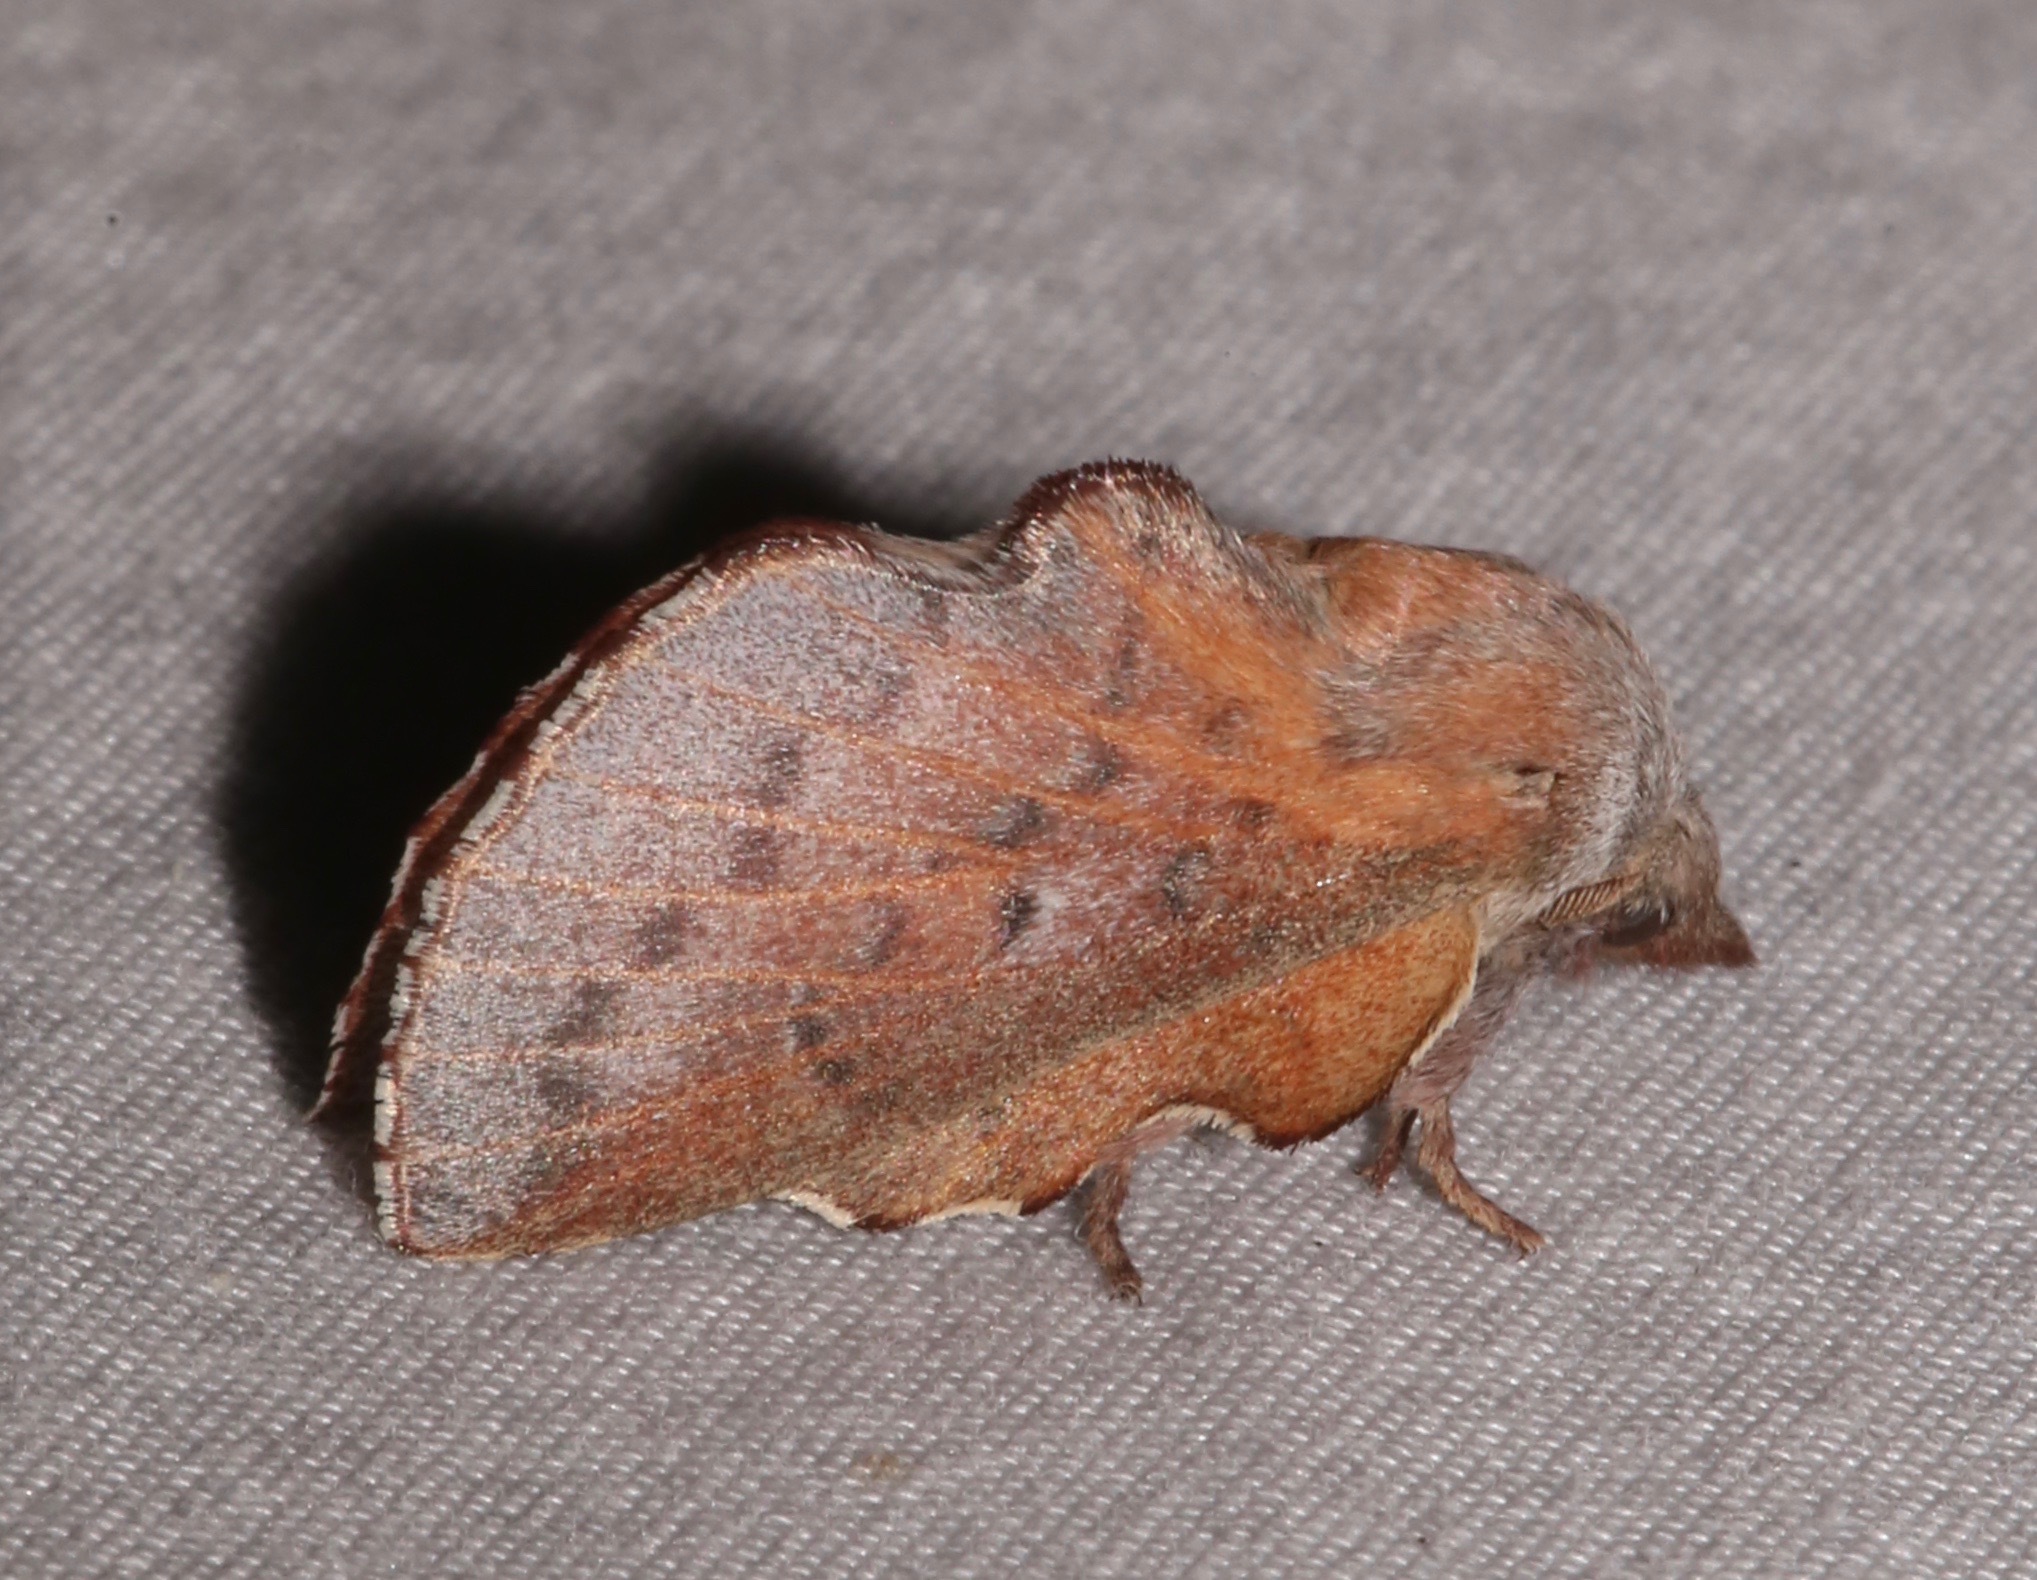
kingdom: Animalia
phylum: Arthropoda
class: Insecta
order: Lepidoptera
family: Lasiocampidae
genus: Phyllodesma
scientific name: Phyllodesma americana
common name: American lappet moth
